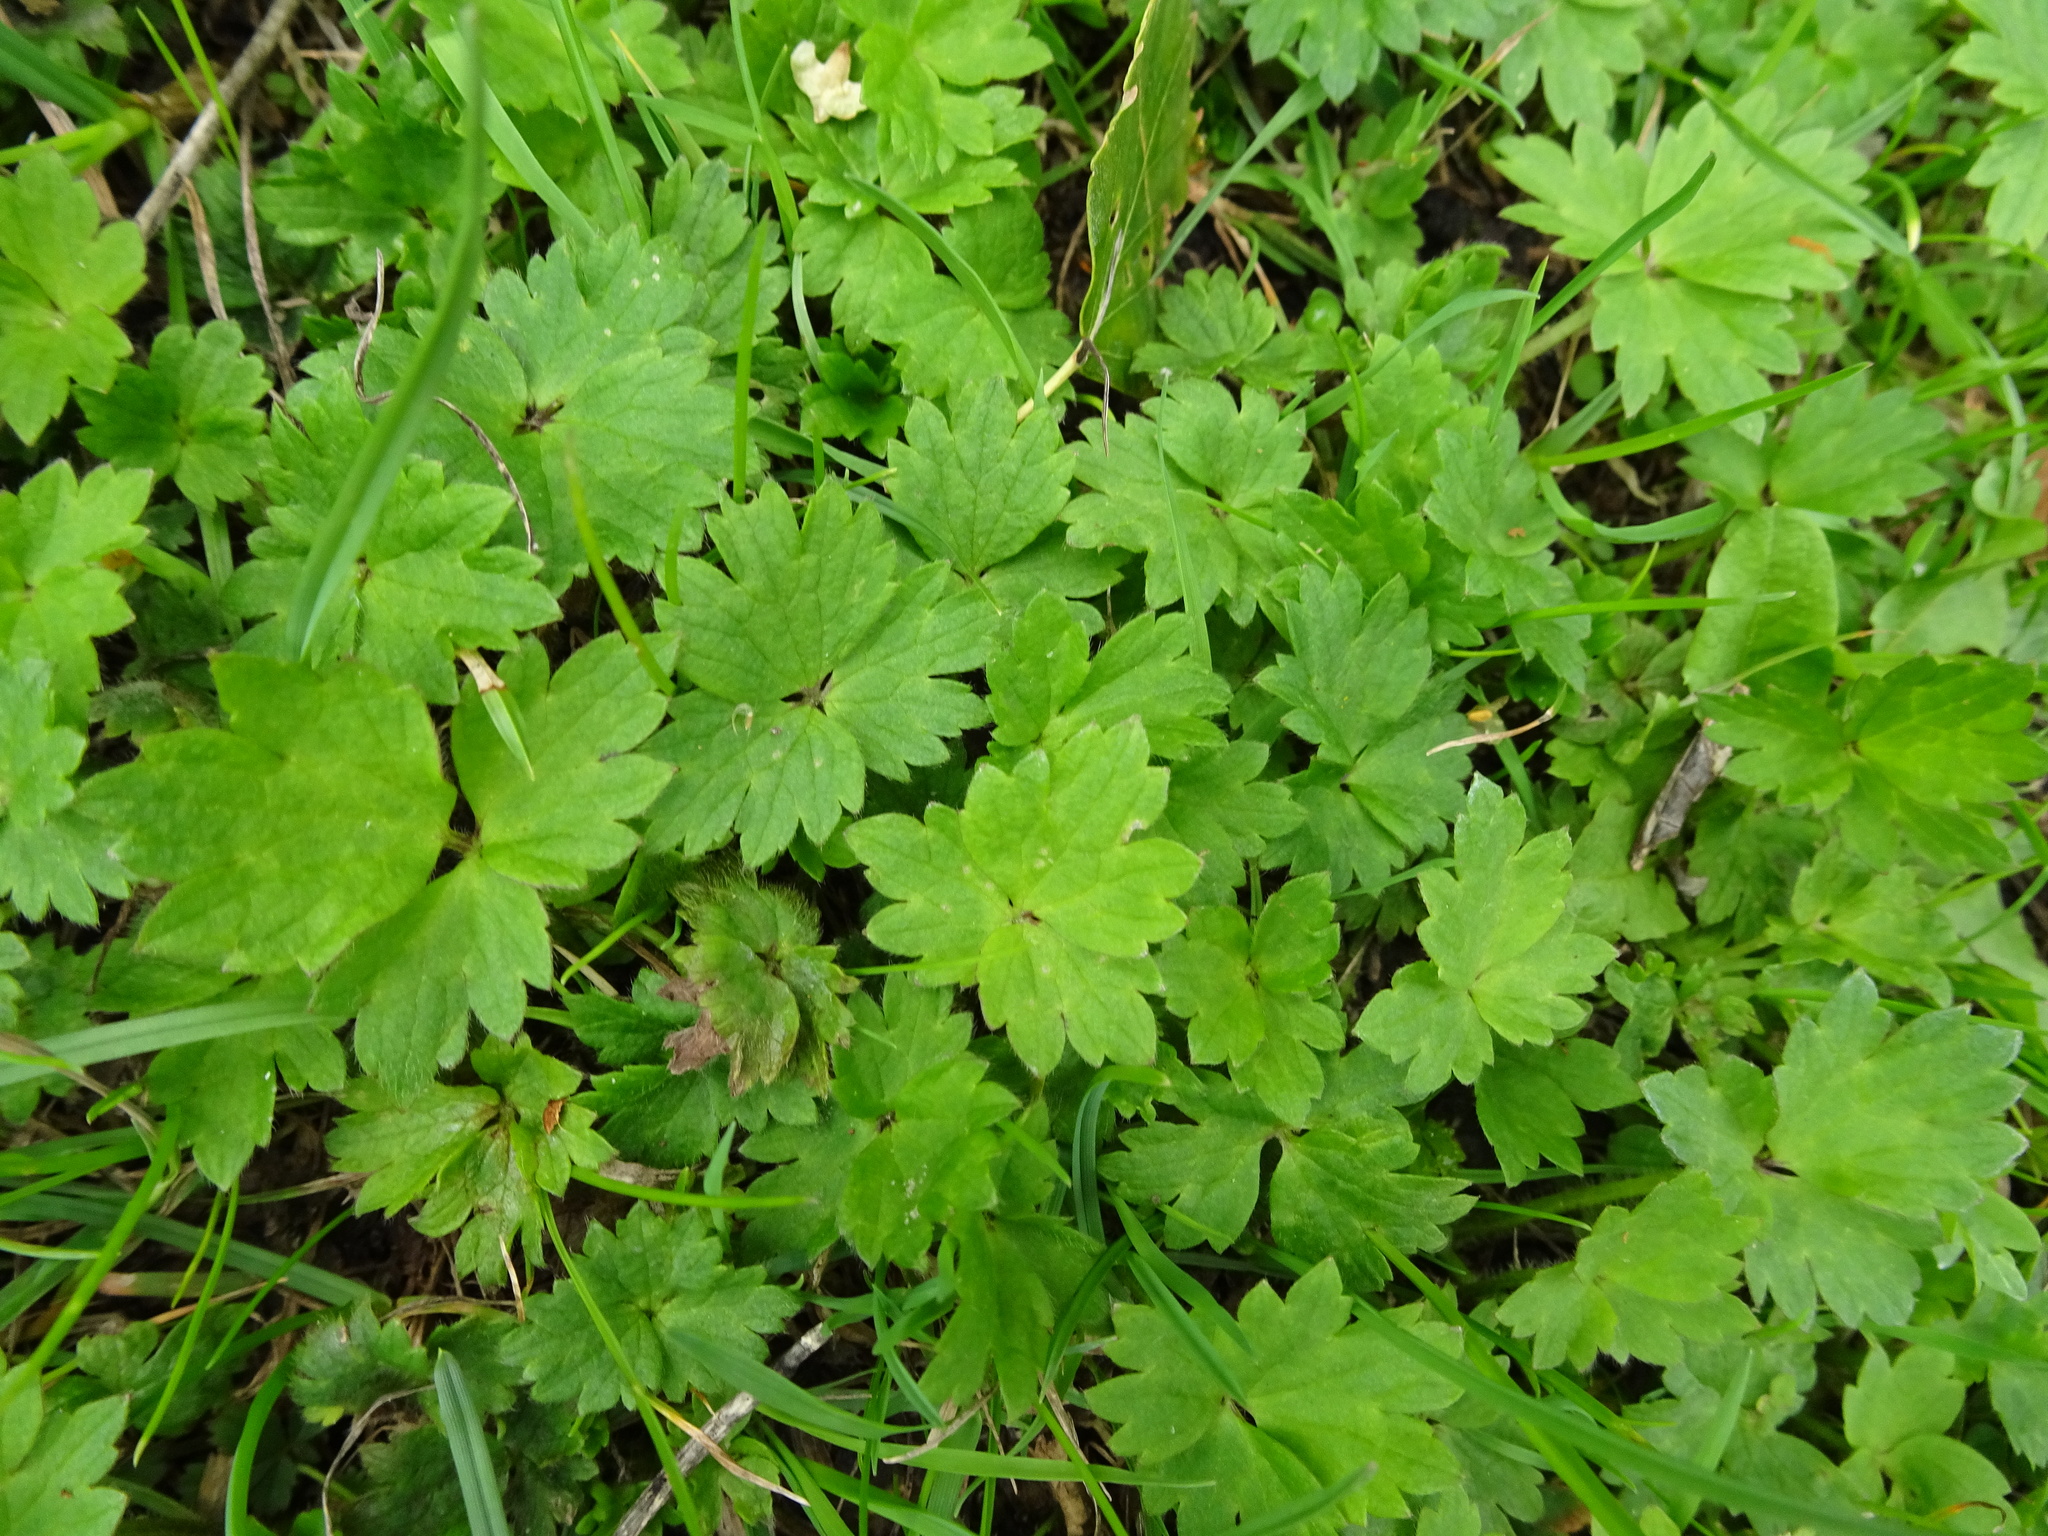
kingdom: Plantae
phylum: Tracheophyta
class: Magnoliopsida
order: Ranunculales
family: Ranunculaceae
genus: Ranunculus
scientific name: Ranunculus repens
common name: Creeping buttercup
